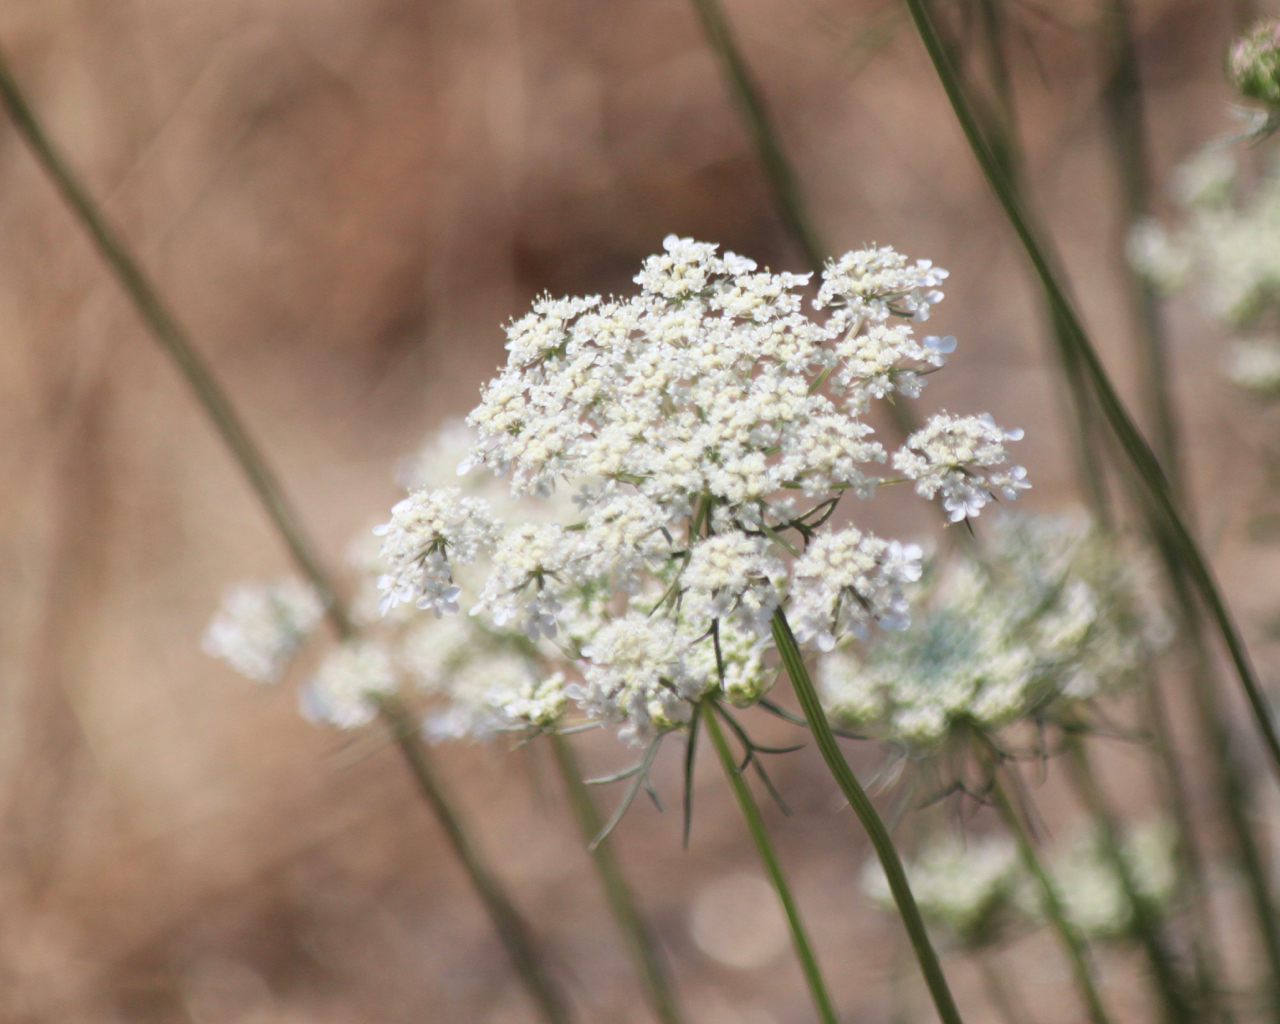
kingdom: Plantae
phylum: Tracheophyta
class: Magnoliopsida
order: Apiales
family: Apiaceae
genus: Daucus
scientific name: Daucus carota
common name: Wild carrot
